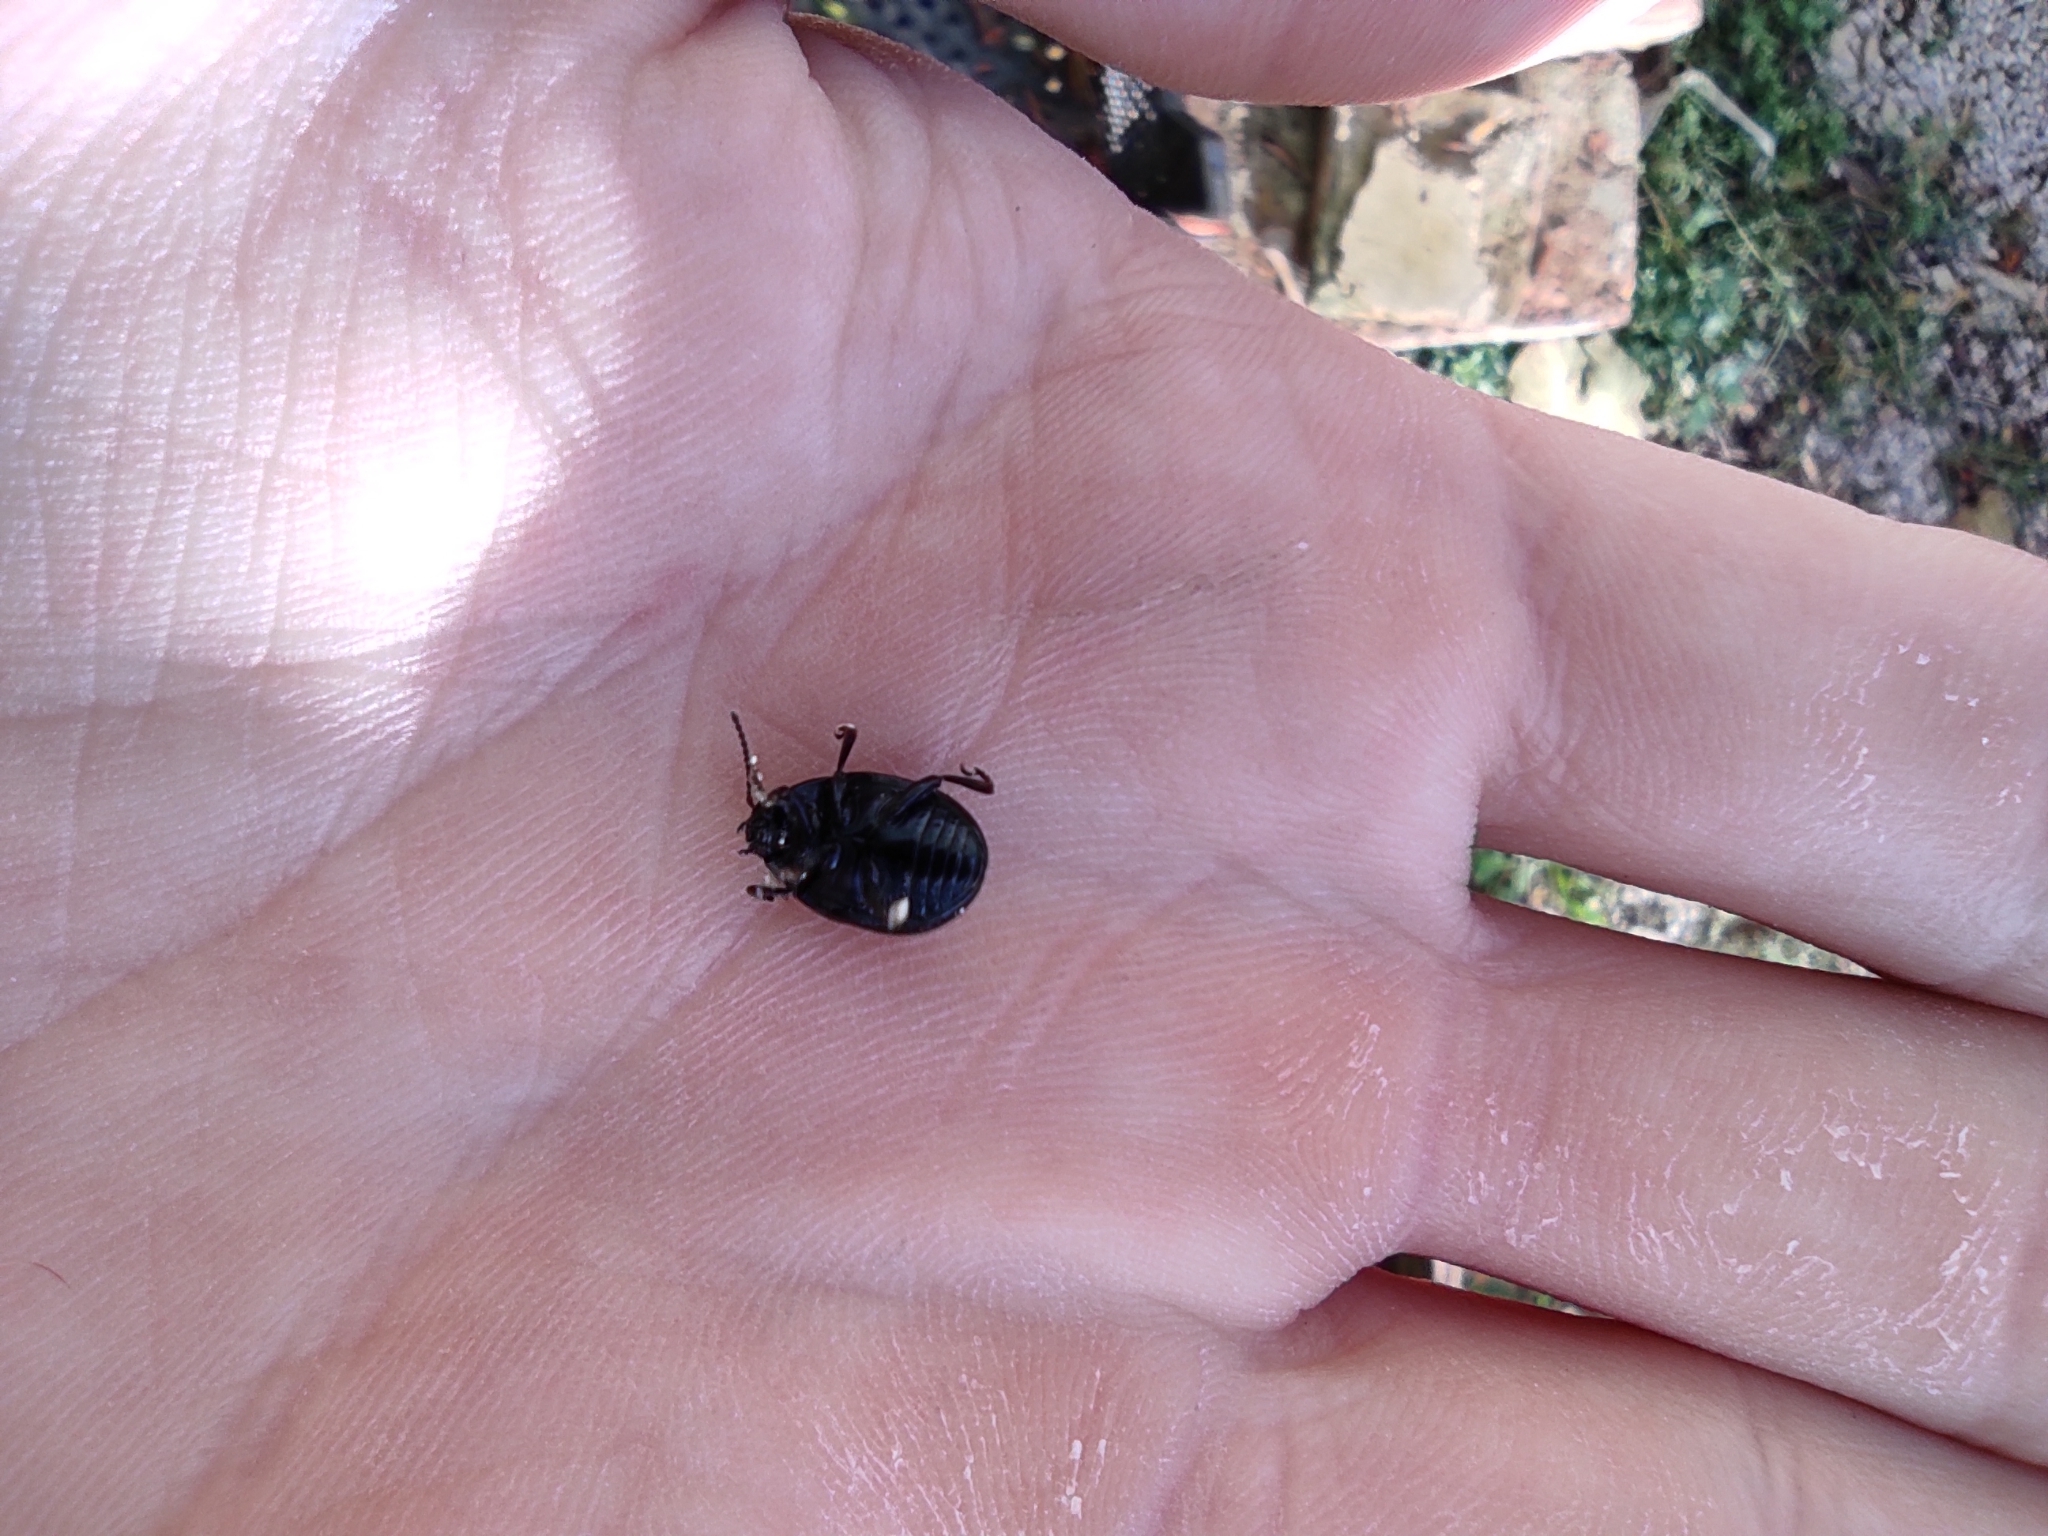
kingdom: Animalia
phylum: Arthropoda
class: Insecta
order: Coleoptera
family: Chrysomelidae
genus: Chrysolina
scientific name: Chrysolina haemoptera
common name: Plantain leaf beetle
